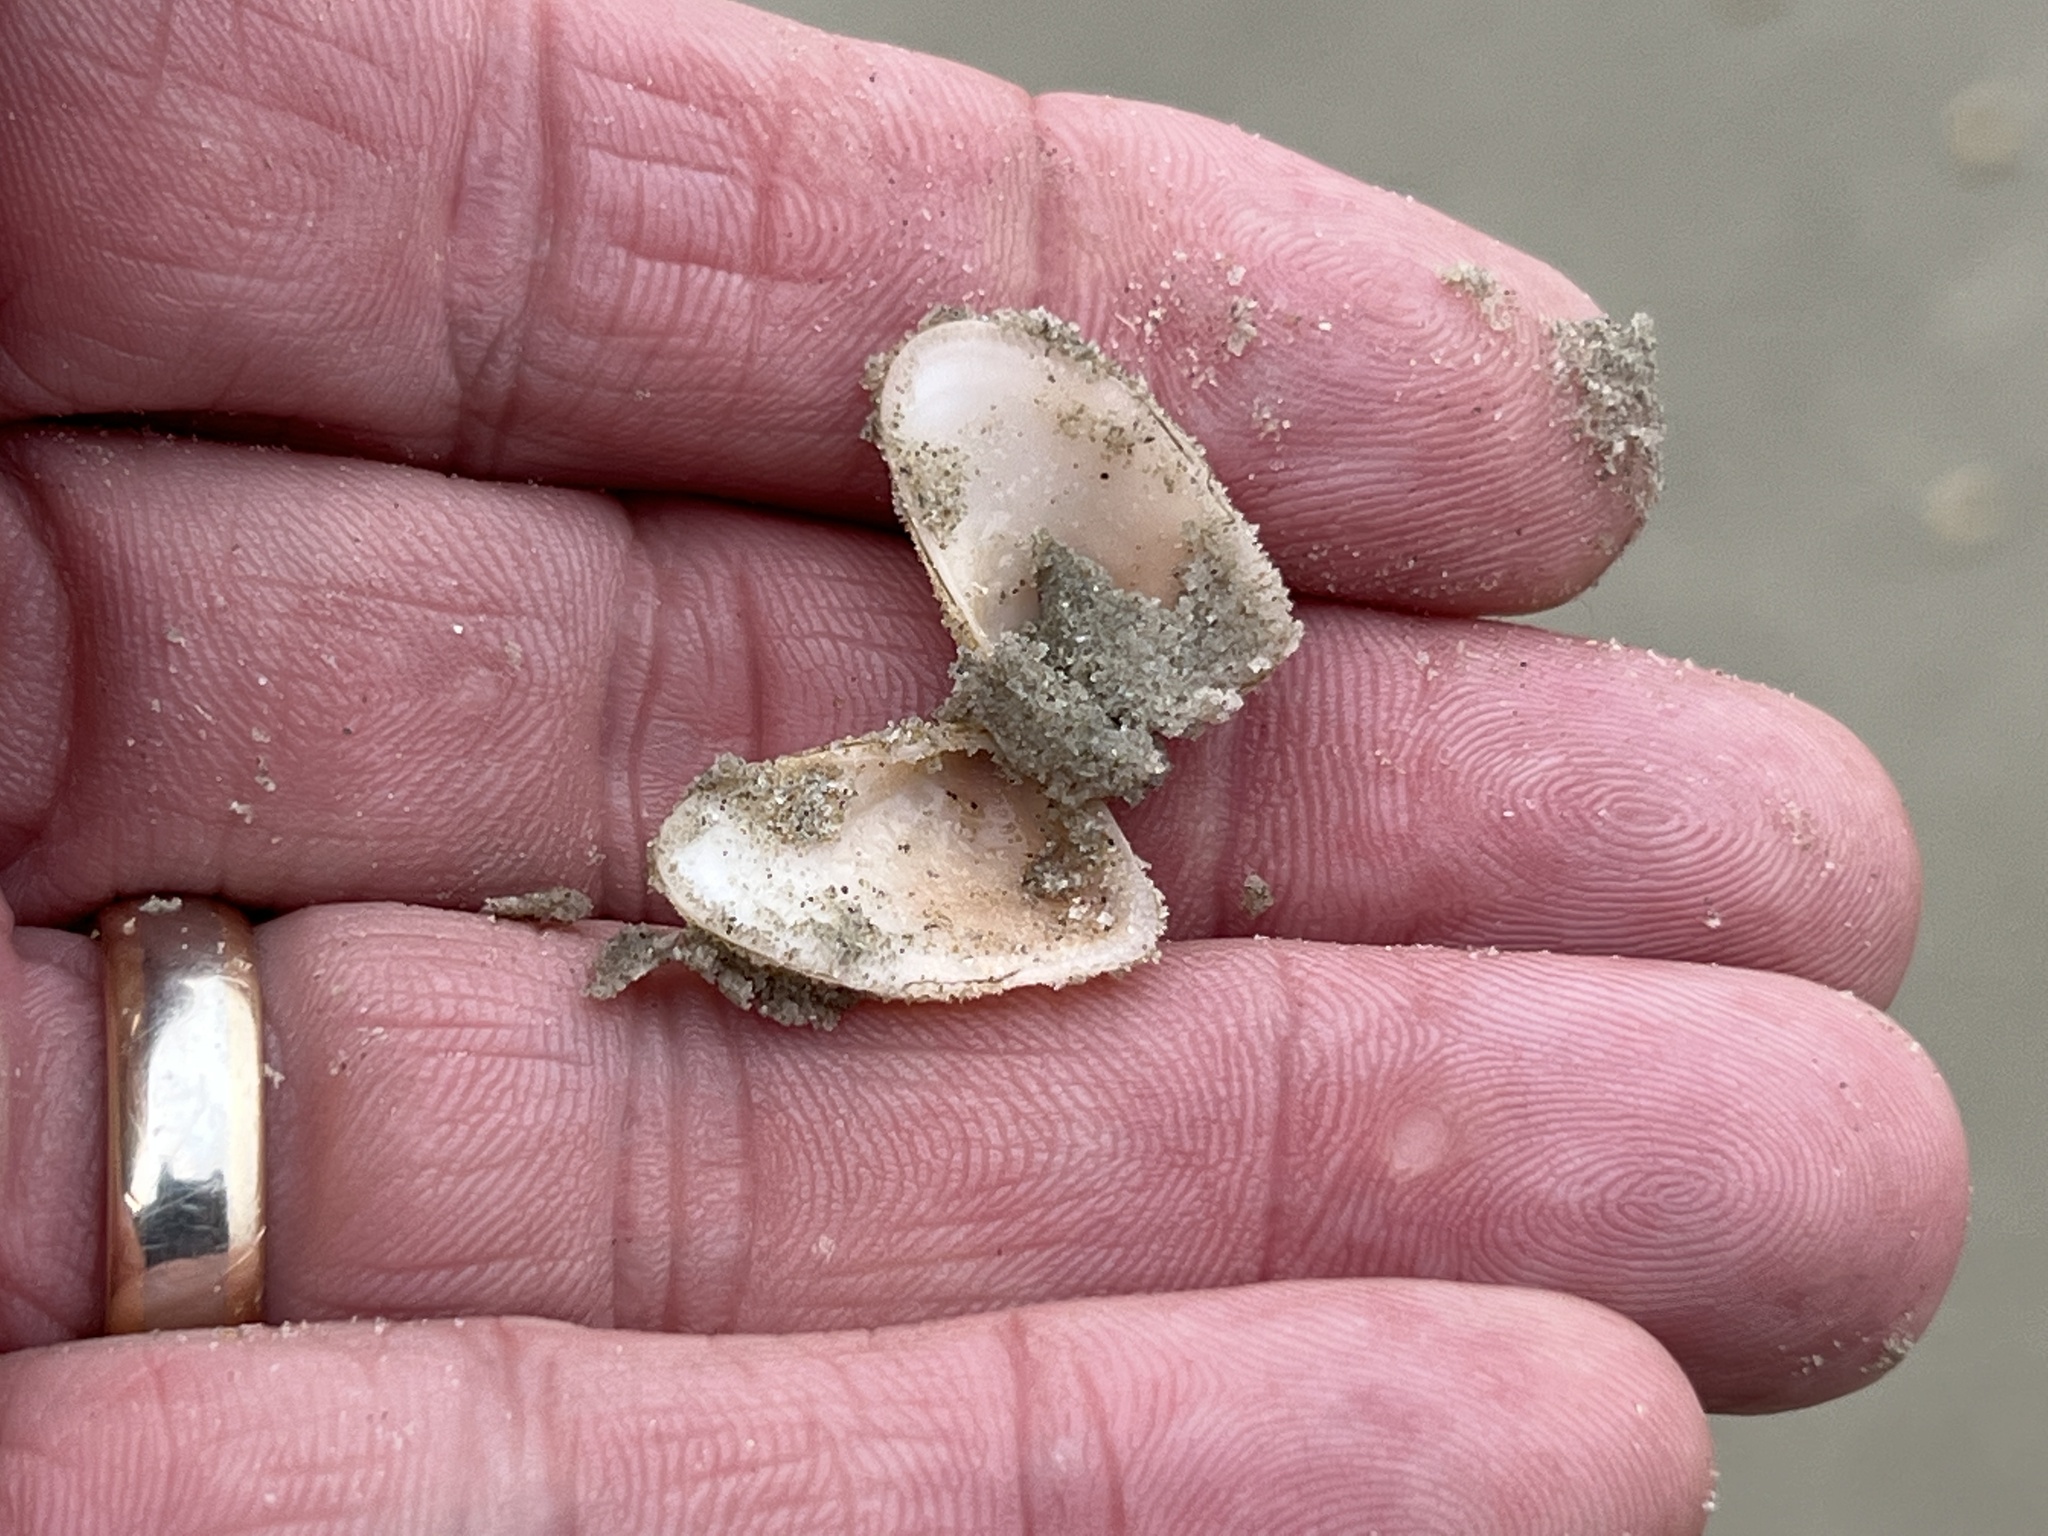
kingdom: Animalia
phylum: Mollusca
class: Bivalvia
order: Cardiida
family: Donacidae
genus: Donax
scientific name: Donax variabilis
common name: Butterfly shell
